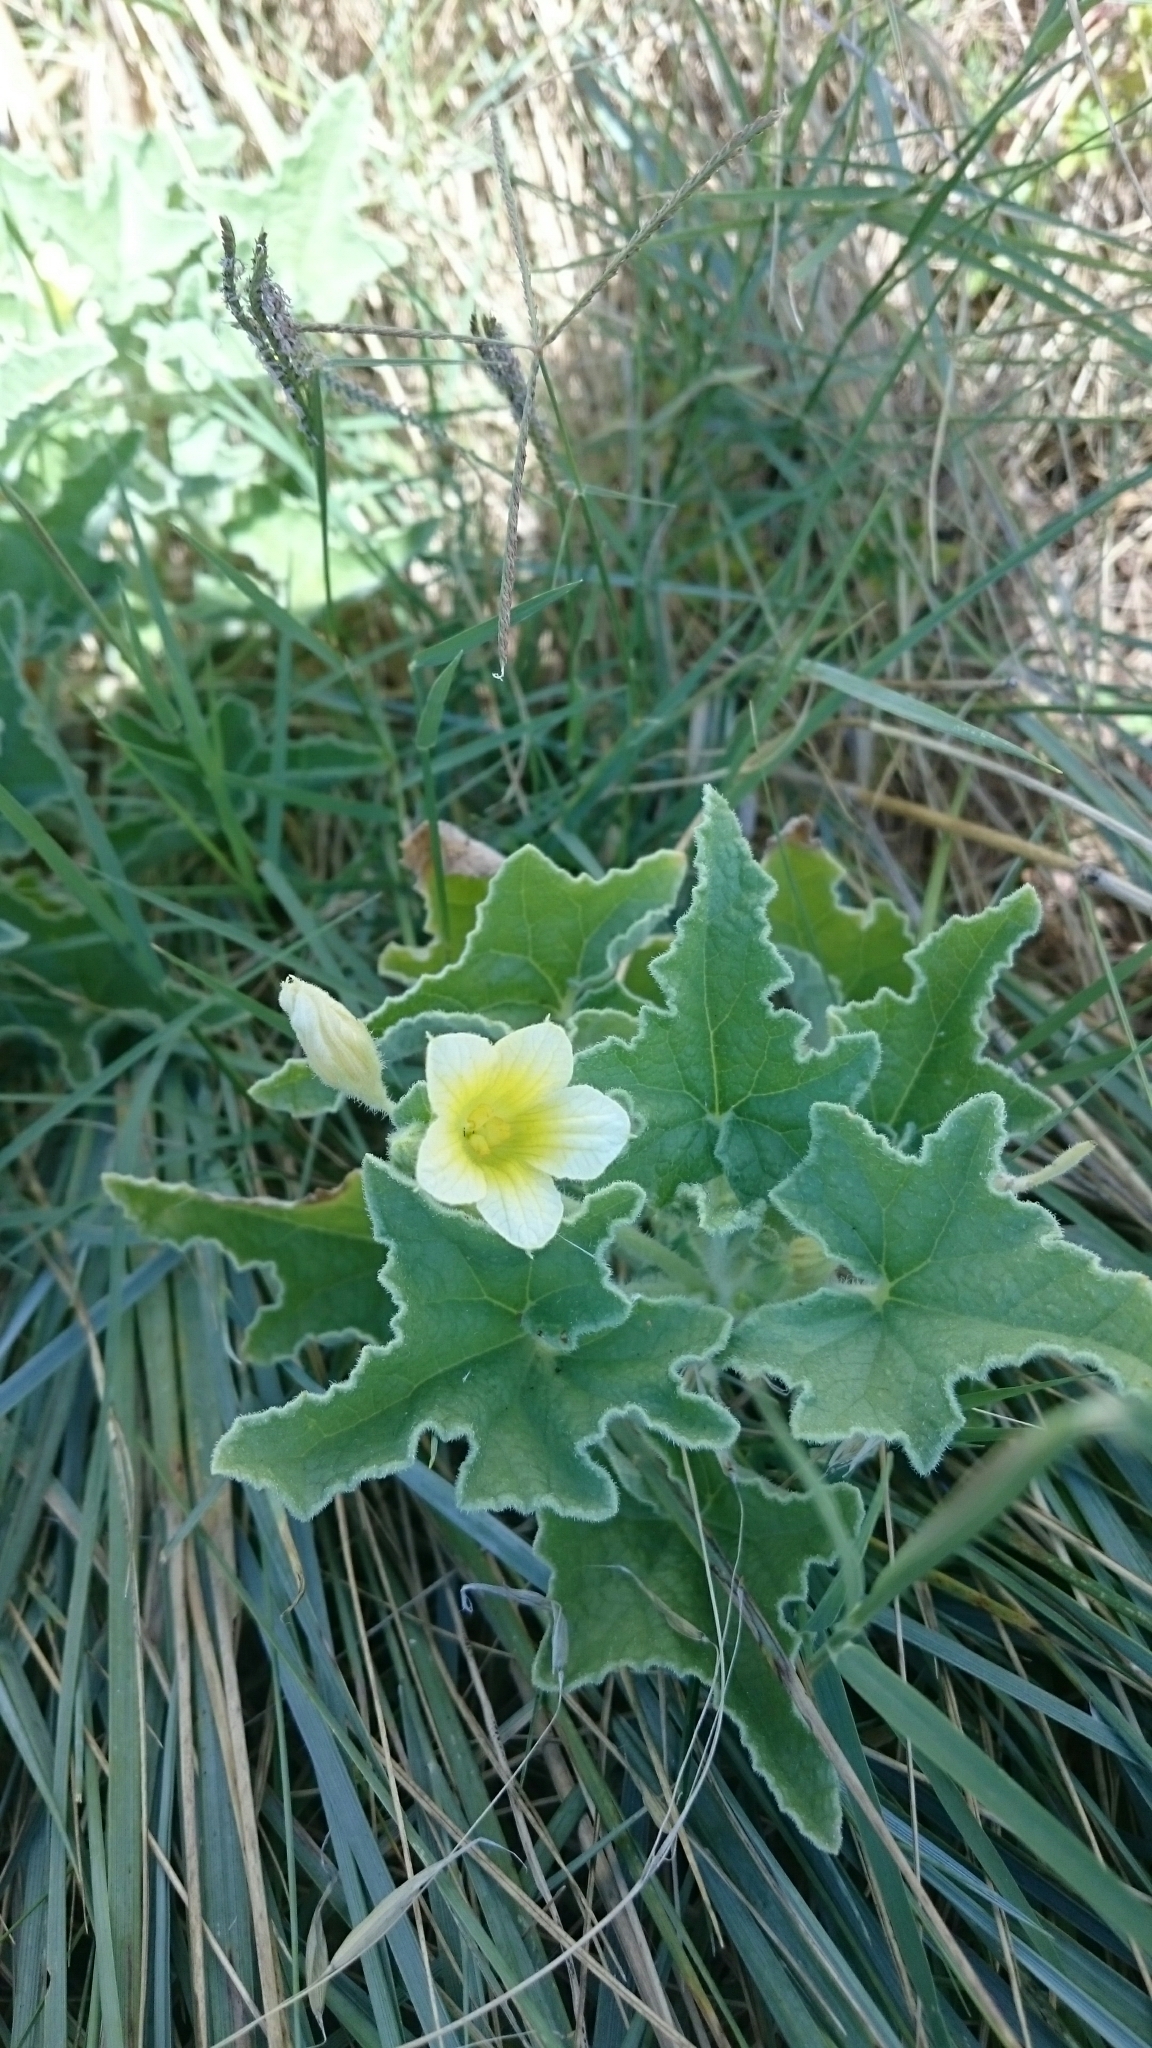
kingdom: Plantae
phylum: Tracheophyta
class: Magnoliopsida
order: Cucurbitales
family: Cucurbitaceae
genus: Ecballium
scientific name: Ecballium elaterium
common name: Squirting cucumber
